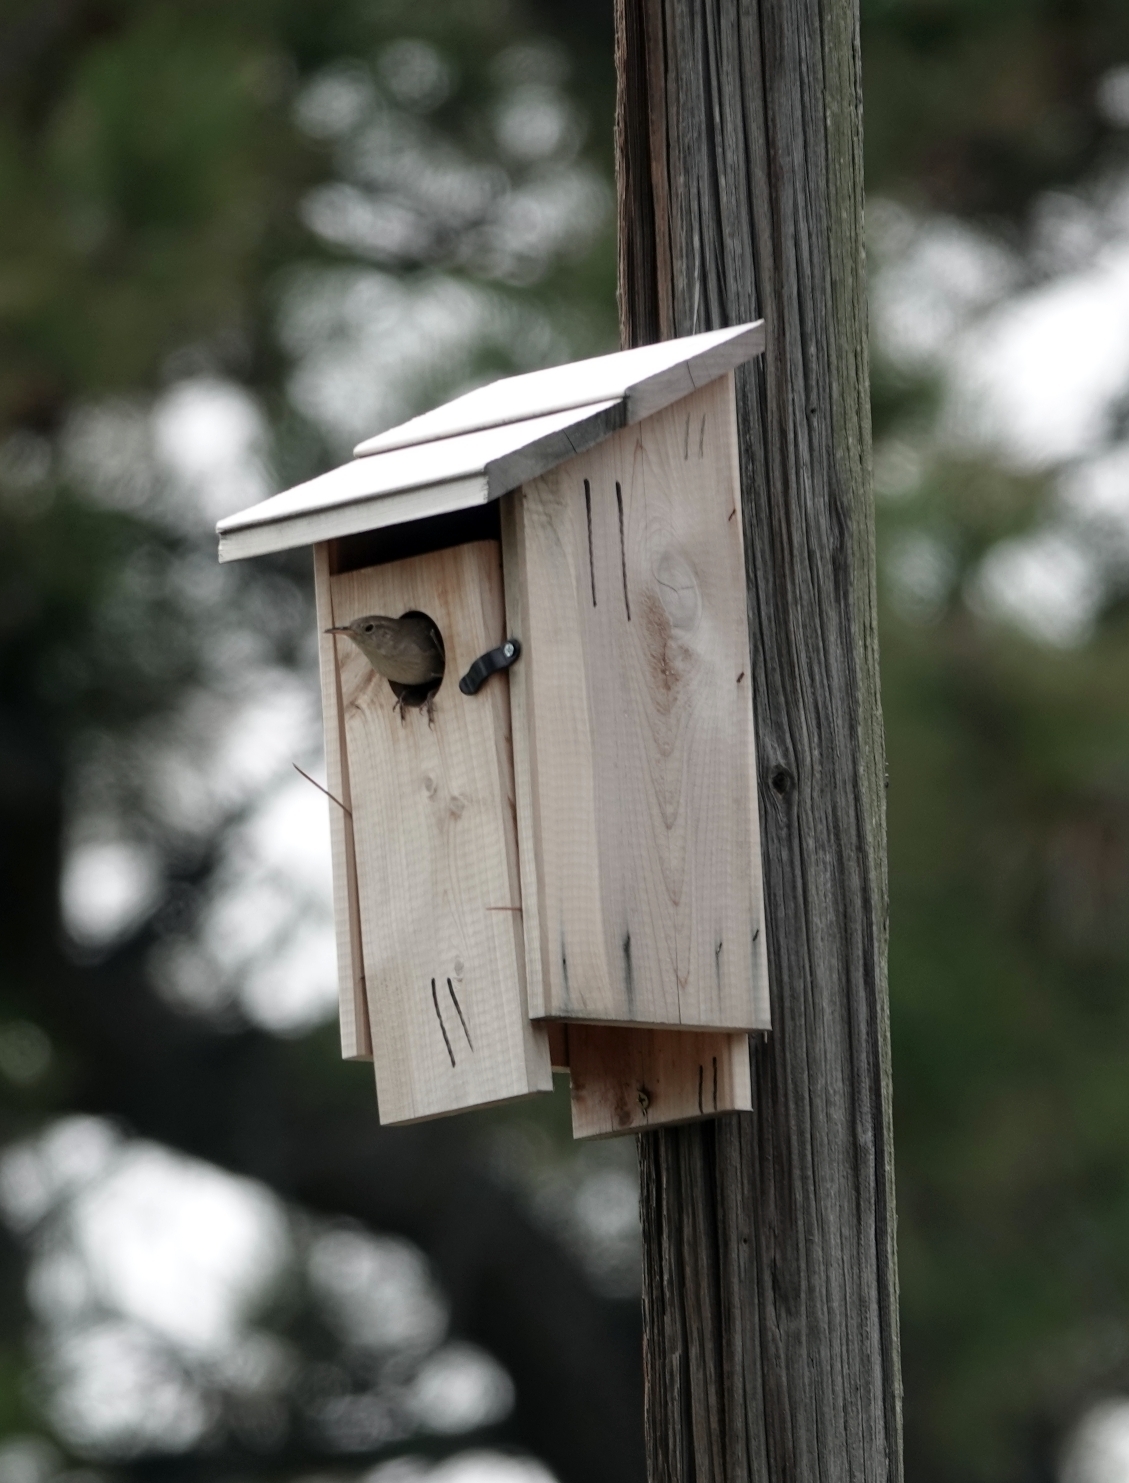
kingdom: Animalia
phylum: Chordata
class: Aves
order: Passeriformes
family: Troglodytidae
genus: Troglodytes
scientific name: Troglodytes aedon
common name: House wren
